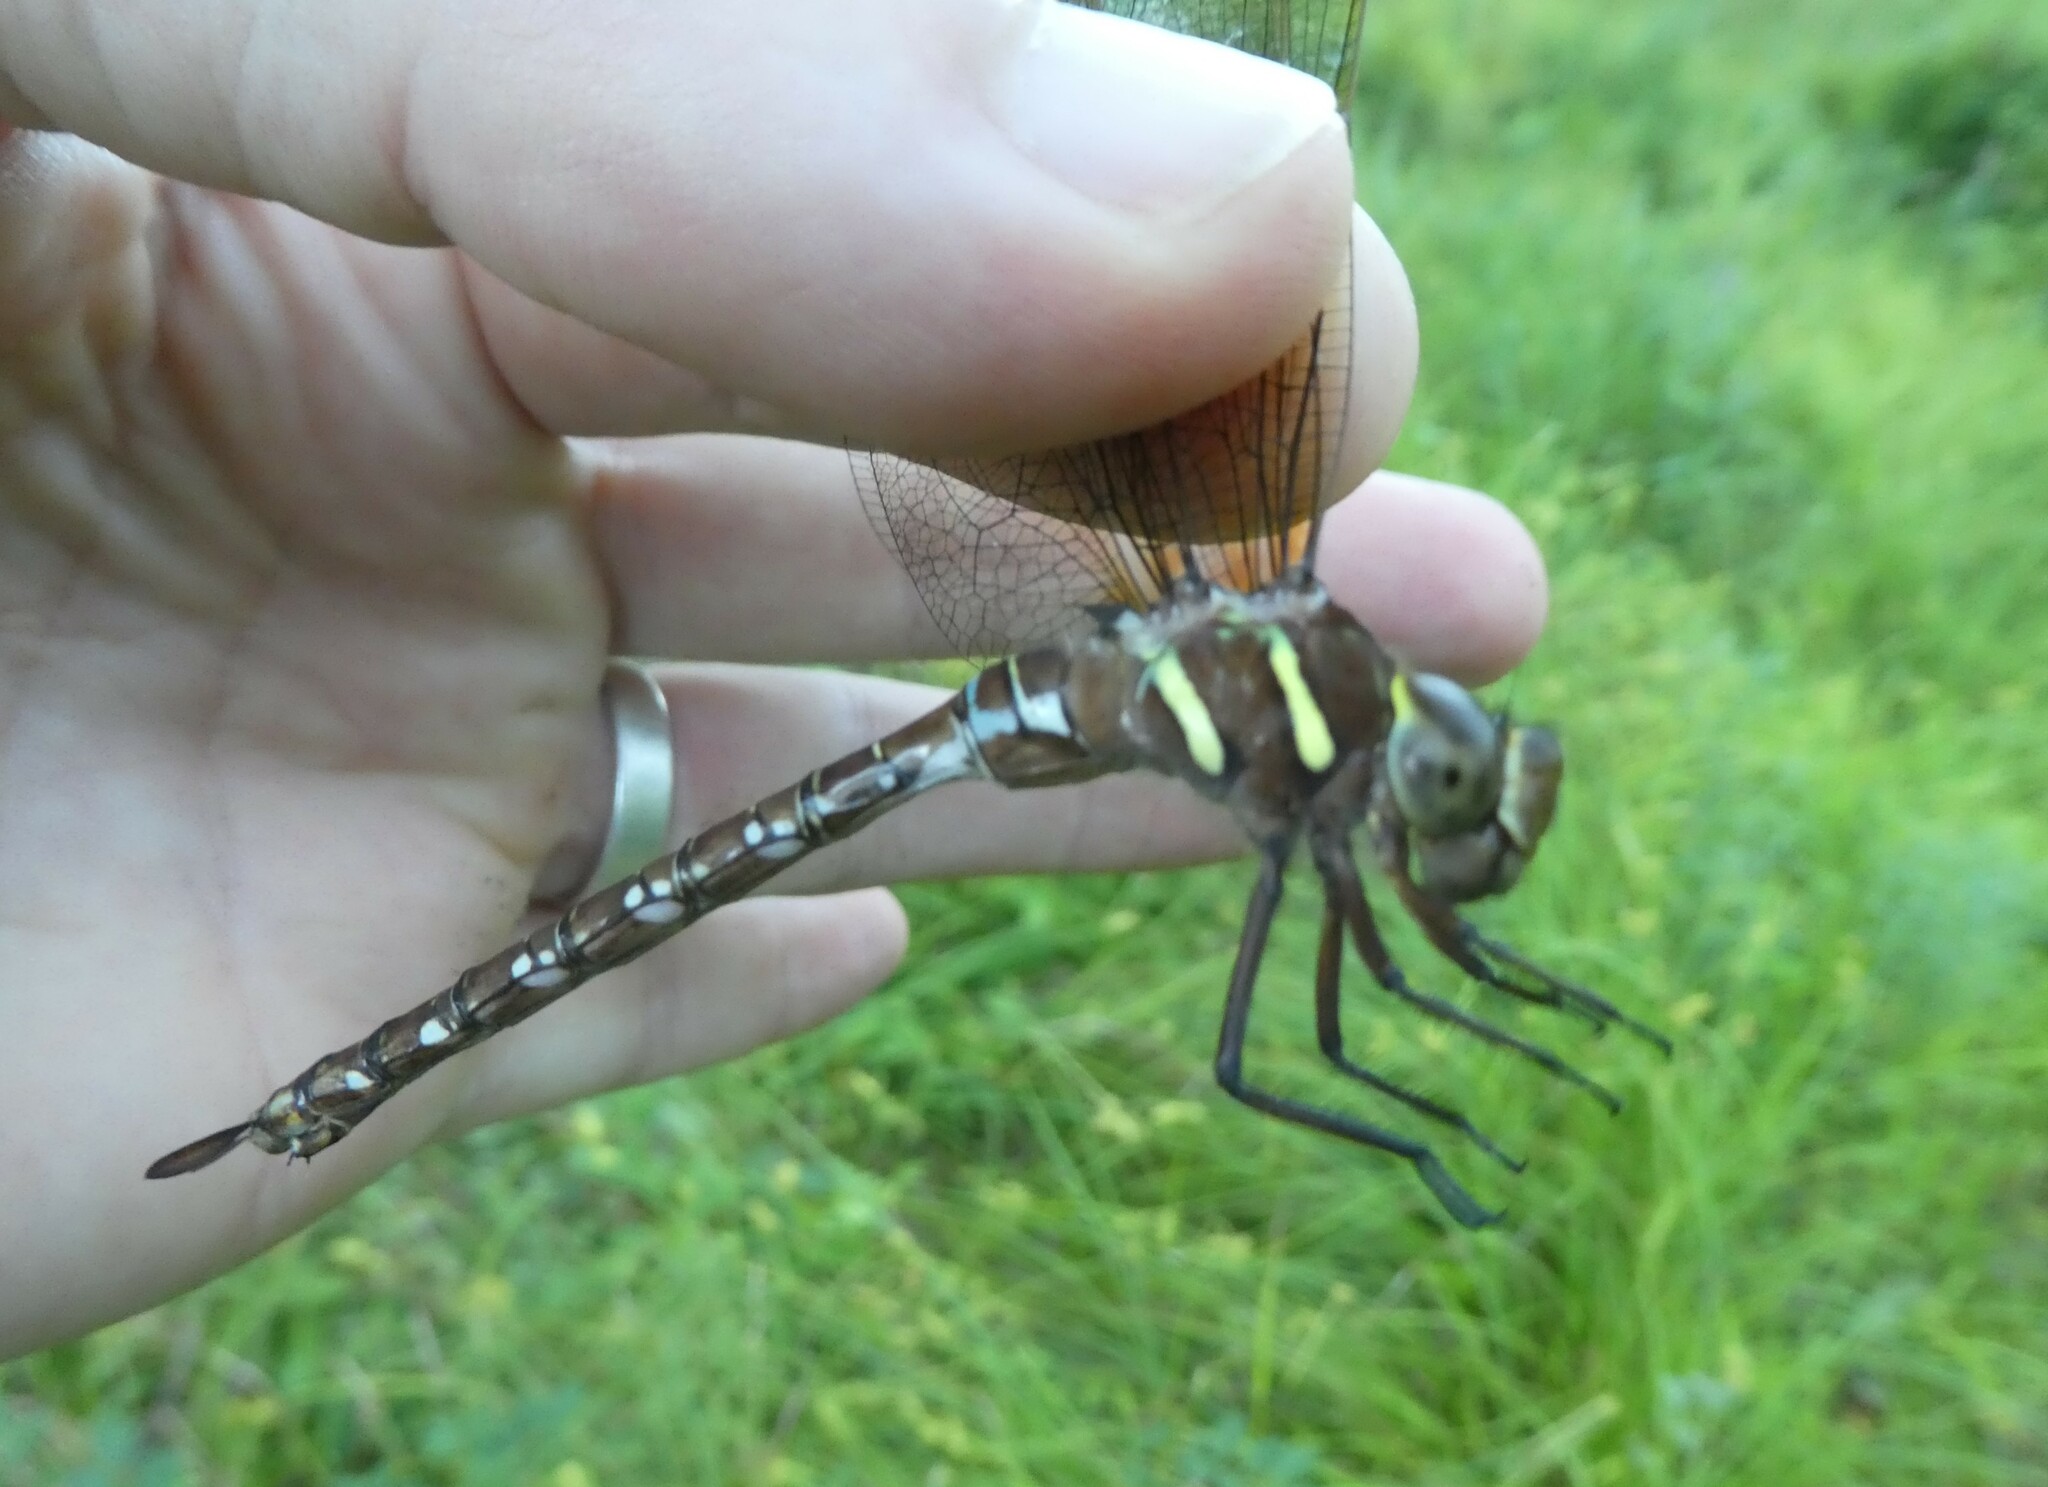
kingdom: Animalia
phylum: Arthropoda
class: Insecta
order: Odonata
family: Aeshnidae
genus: Aeshna
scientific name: Aeshna umbrosa
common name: Shadow darner
